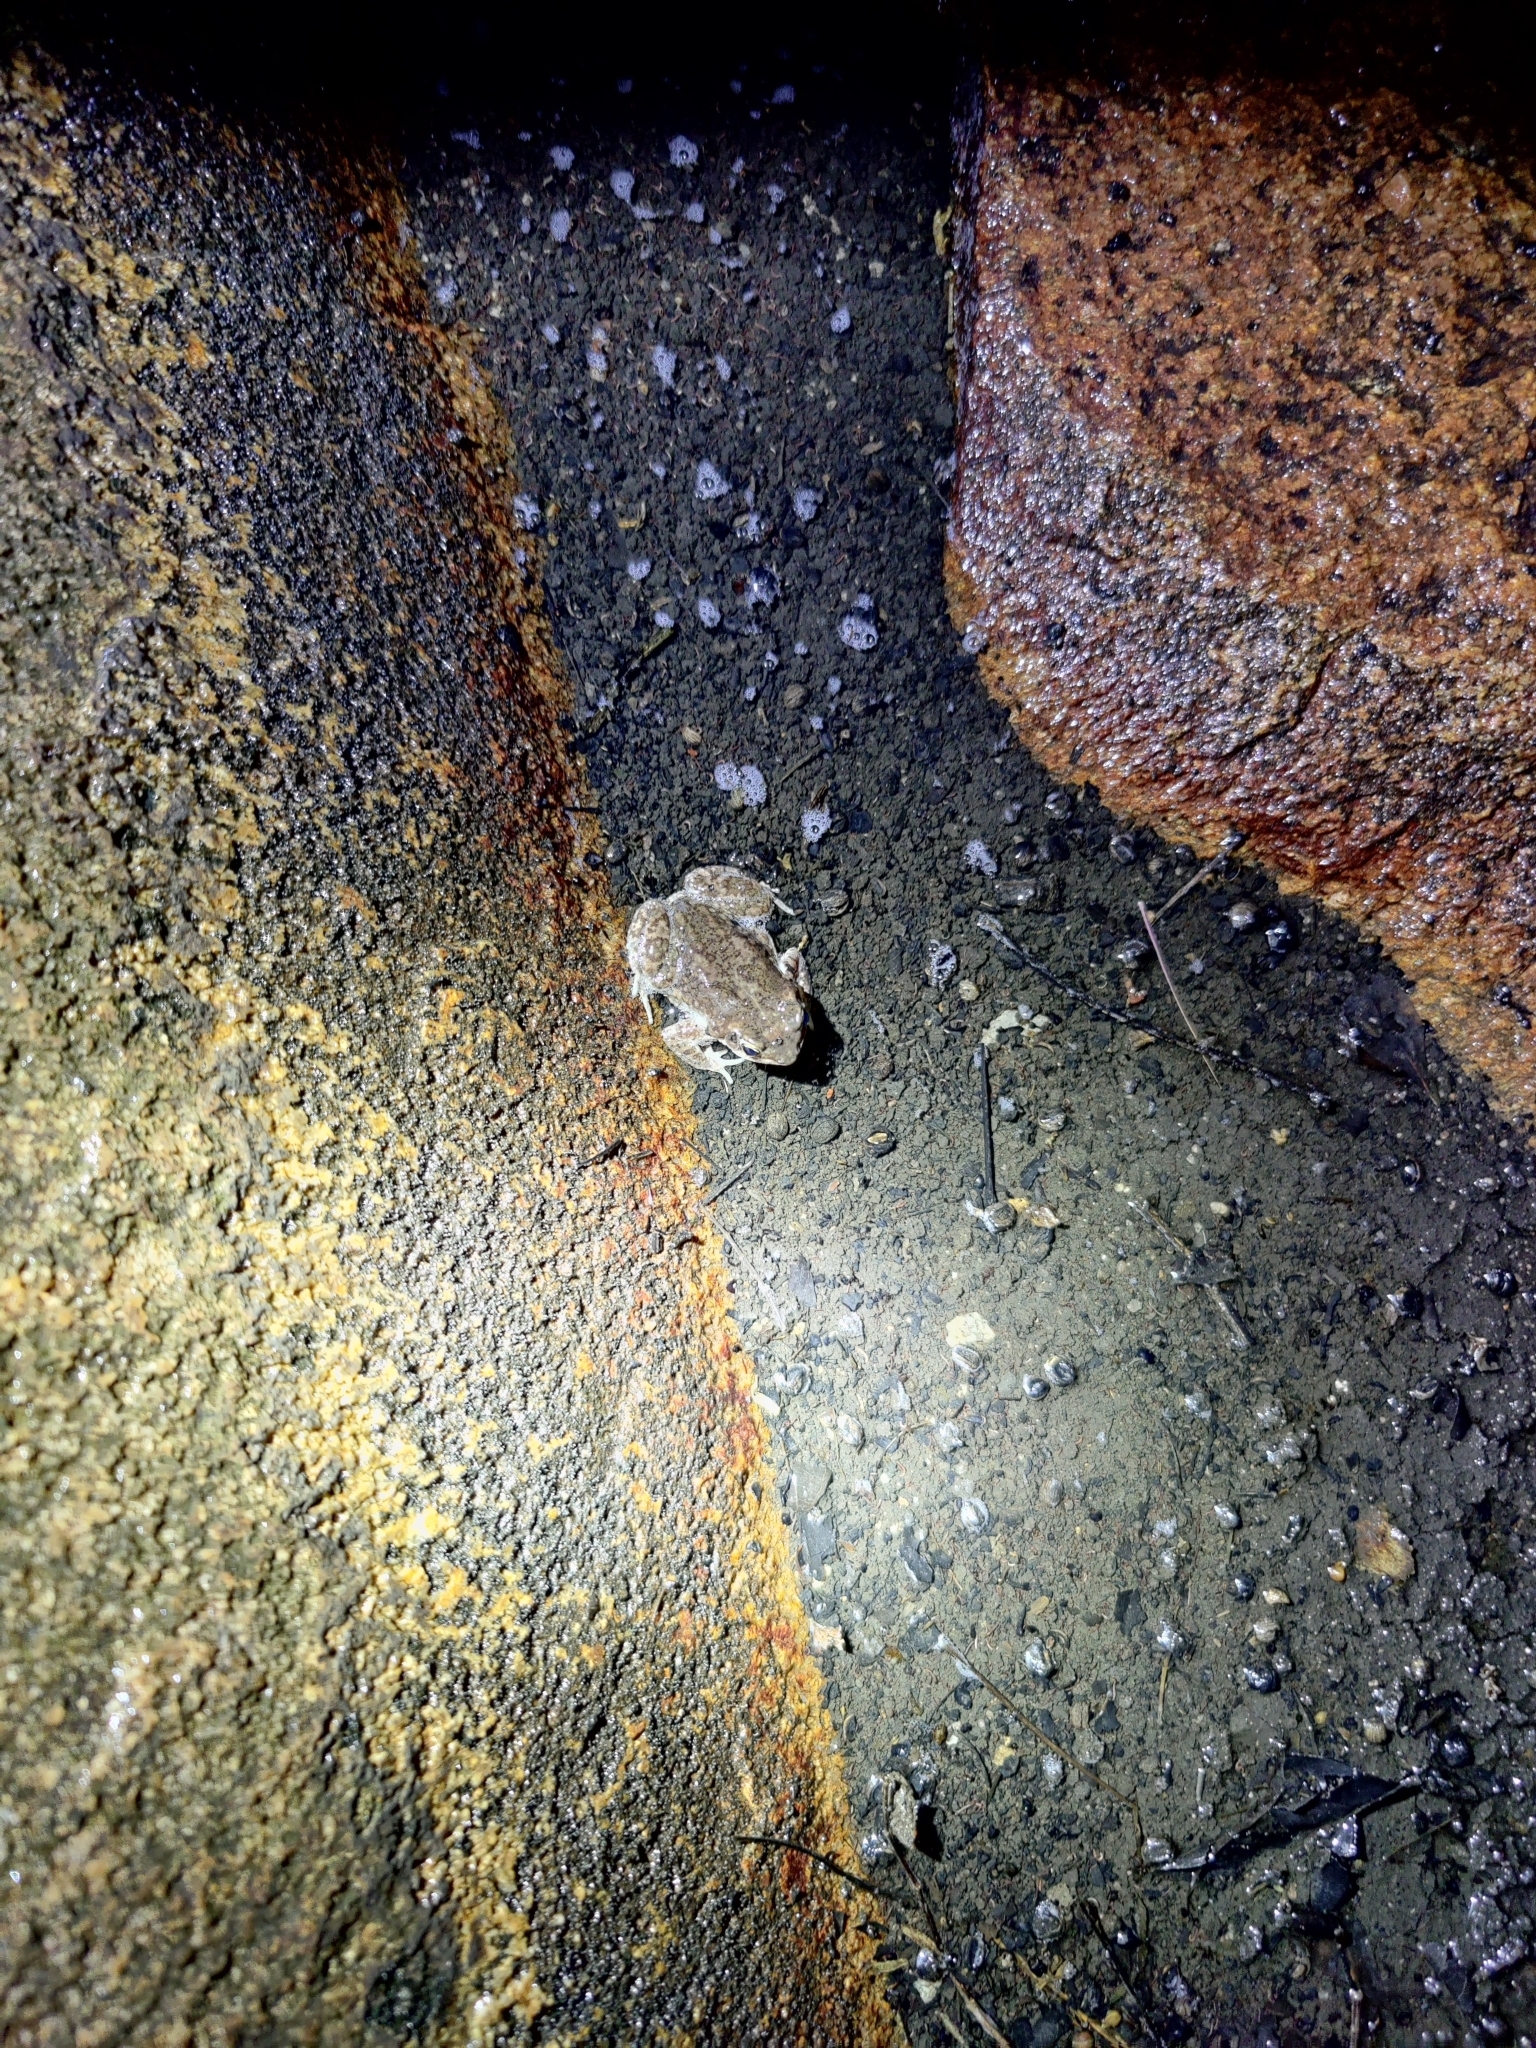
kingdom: Animalia
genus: Firouzophrynus
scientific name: Firouzophrynus
